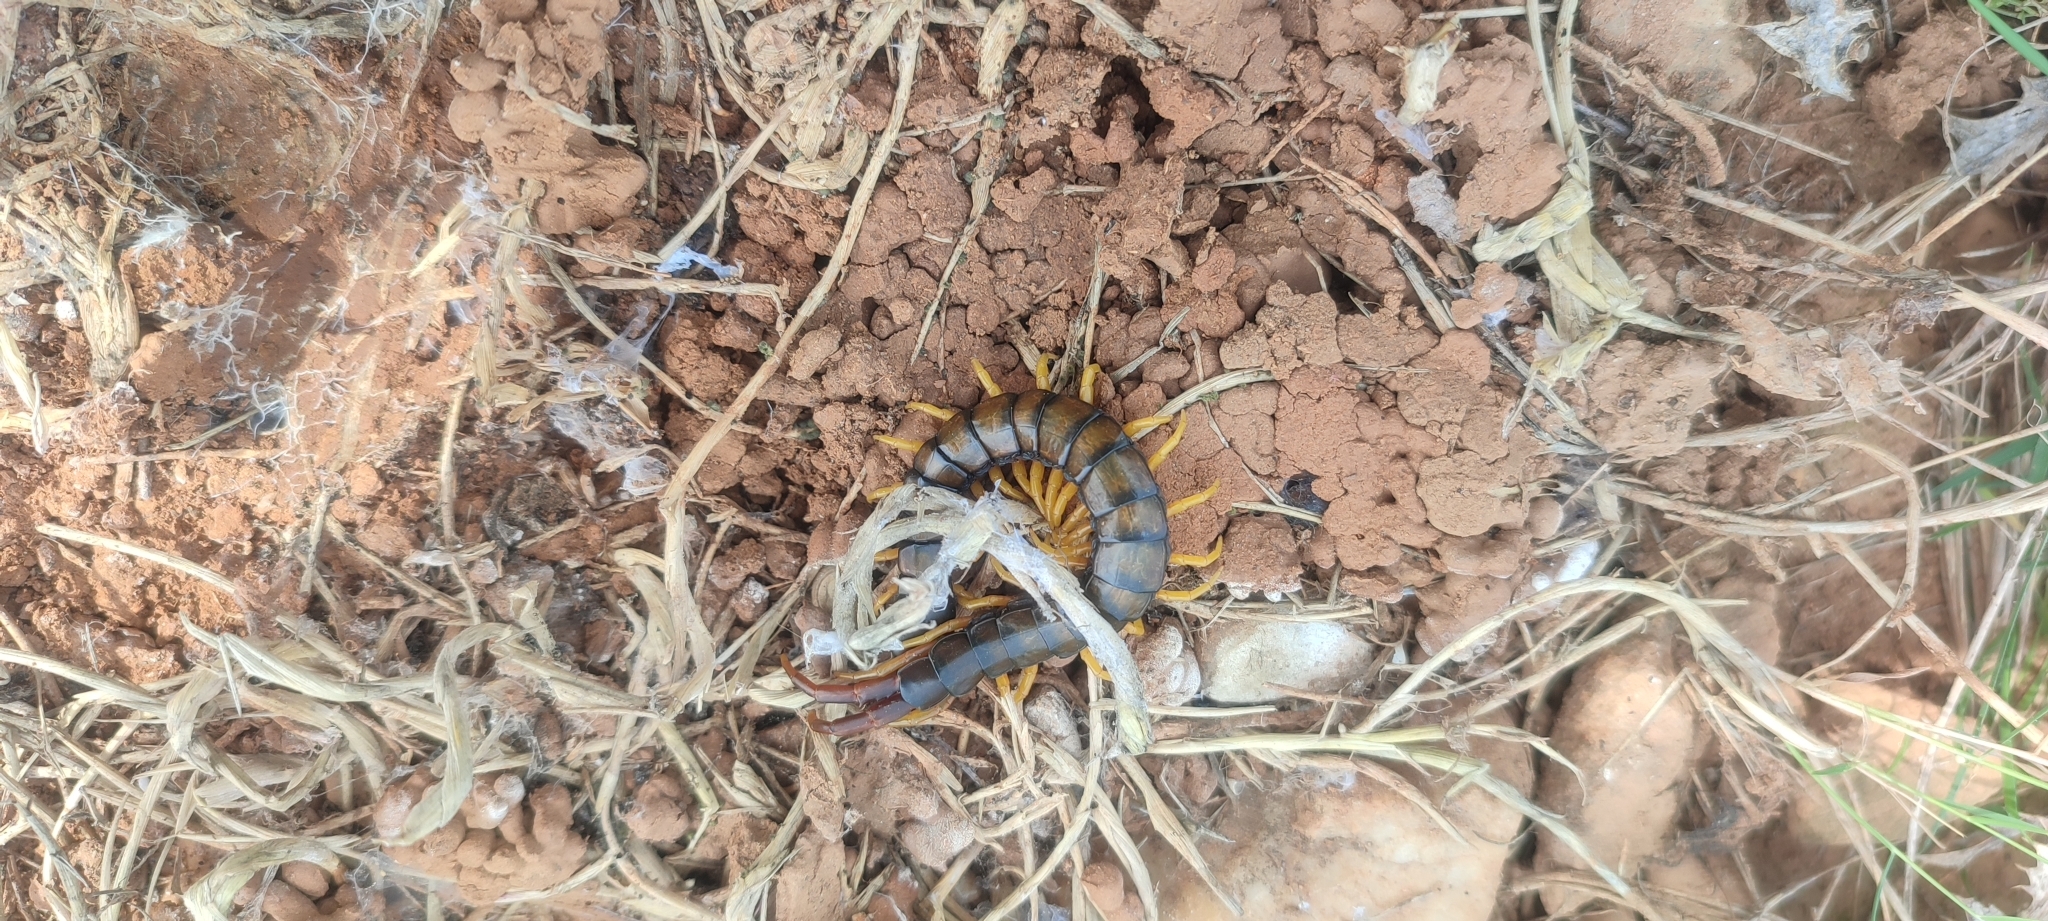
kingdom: Animalia
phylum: Arthropoda
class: Chilopoda
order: Scolopendromorpha
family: Scolopendridae
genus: Scolopendra
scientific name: Scolopendra cingulata
